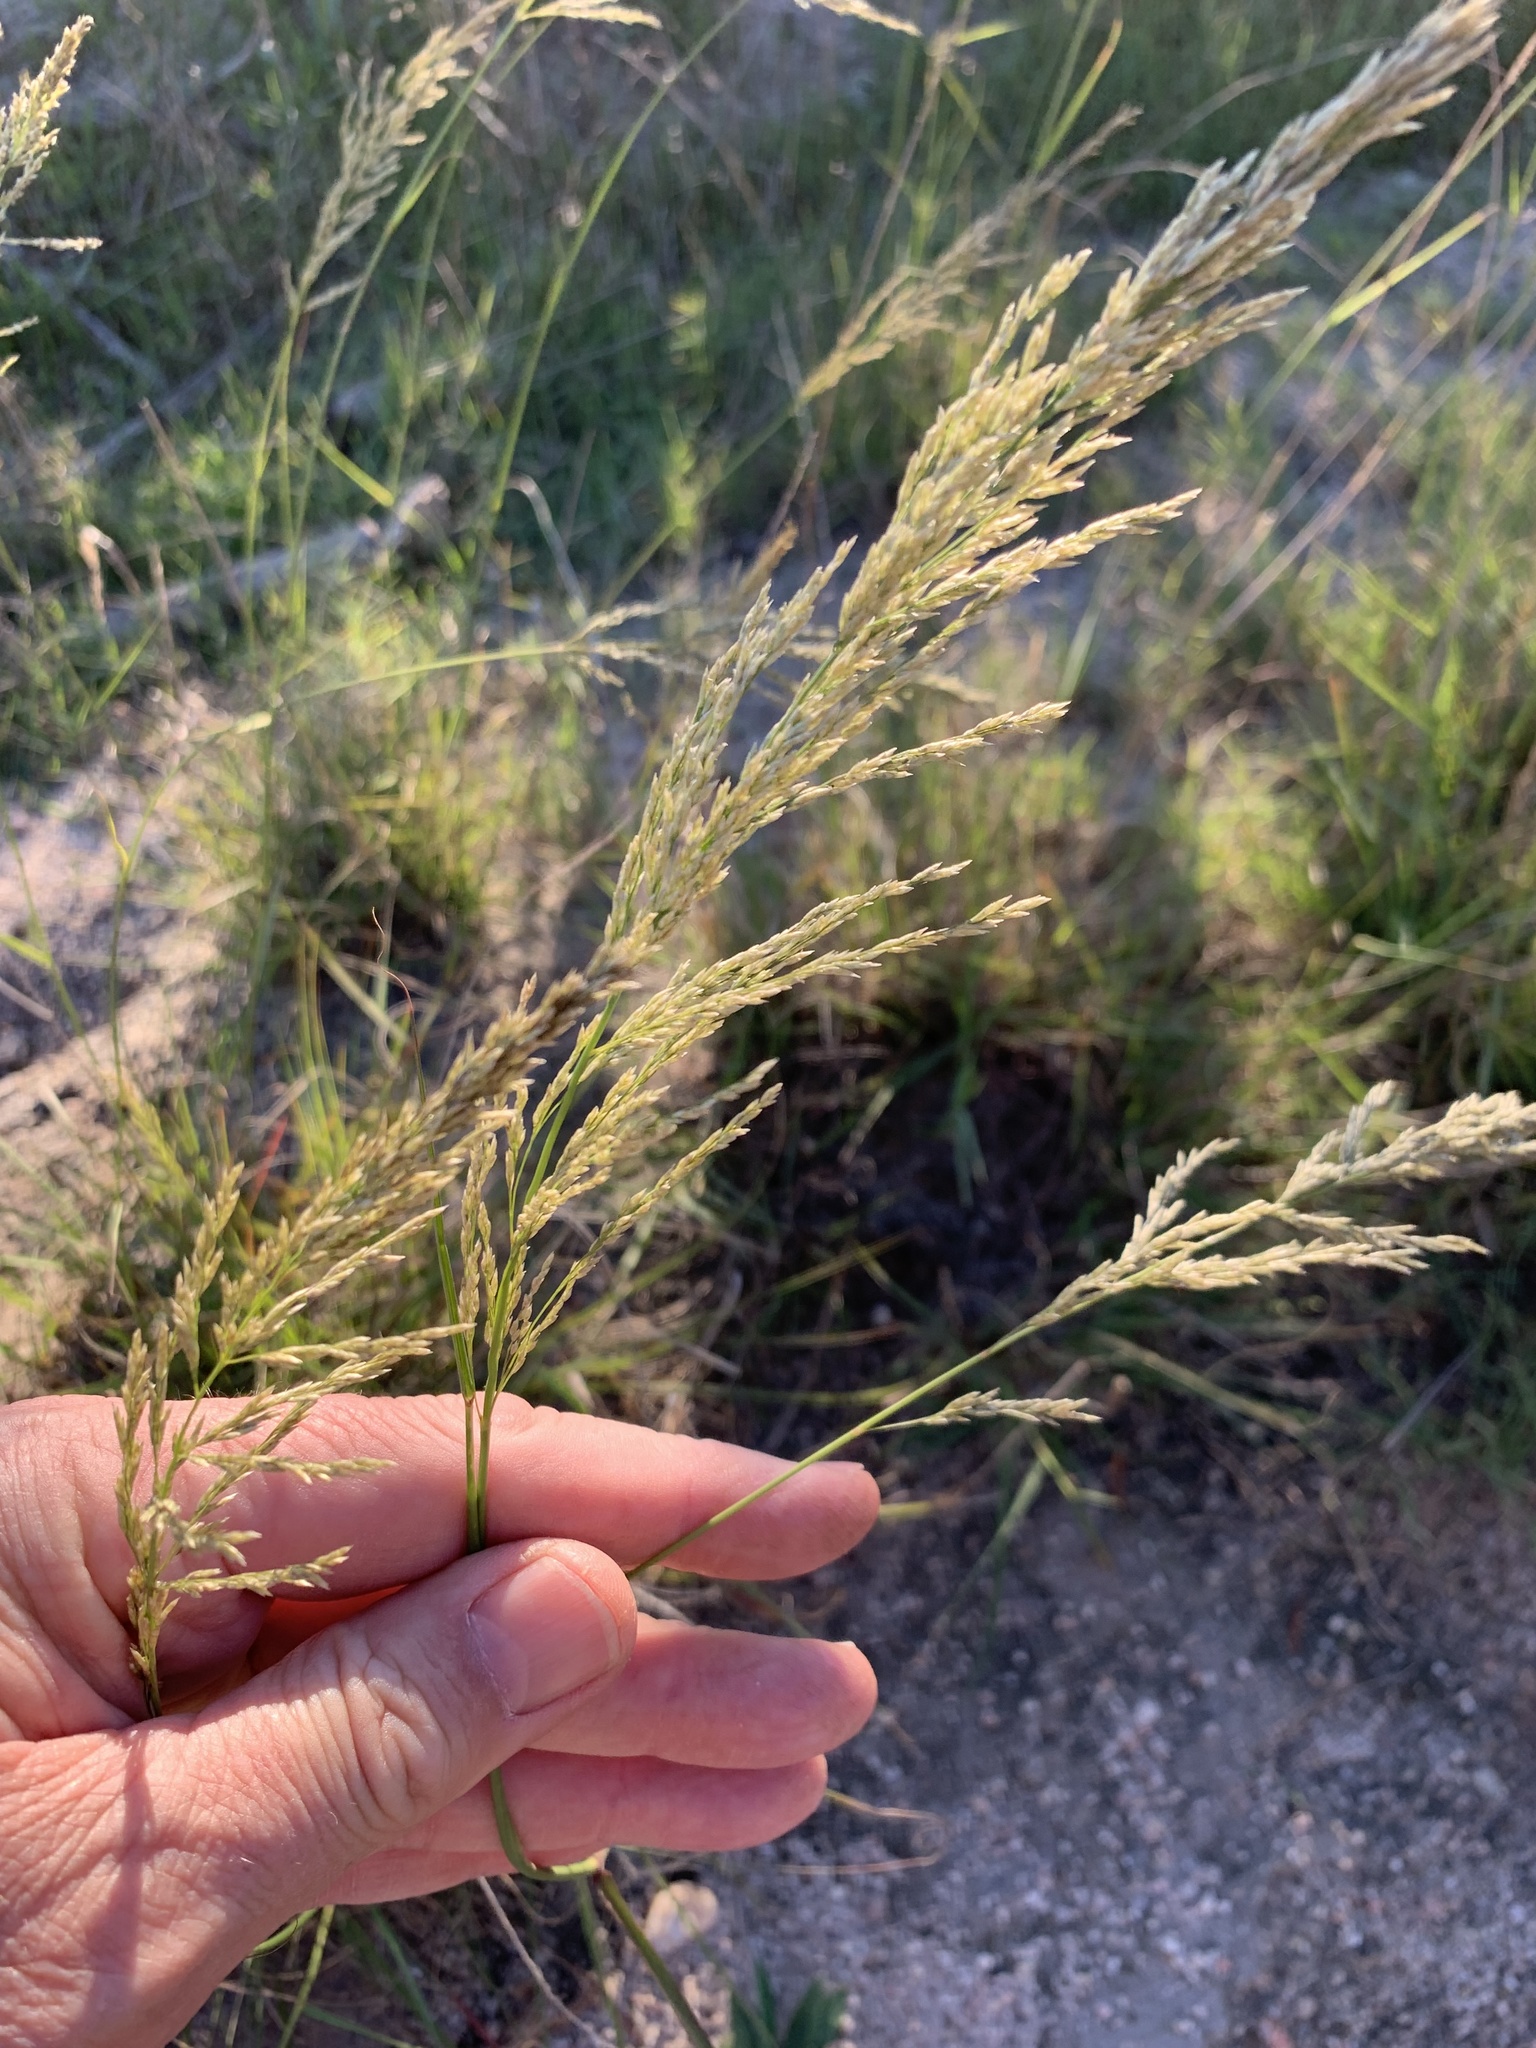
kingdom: Plantae
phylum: Tracheophyta
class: Liliopsida
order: Poales
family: Poaceae
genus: Eragrostis
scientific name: Eragrostis curvula
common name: African love-grass
